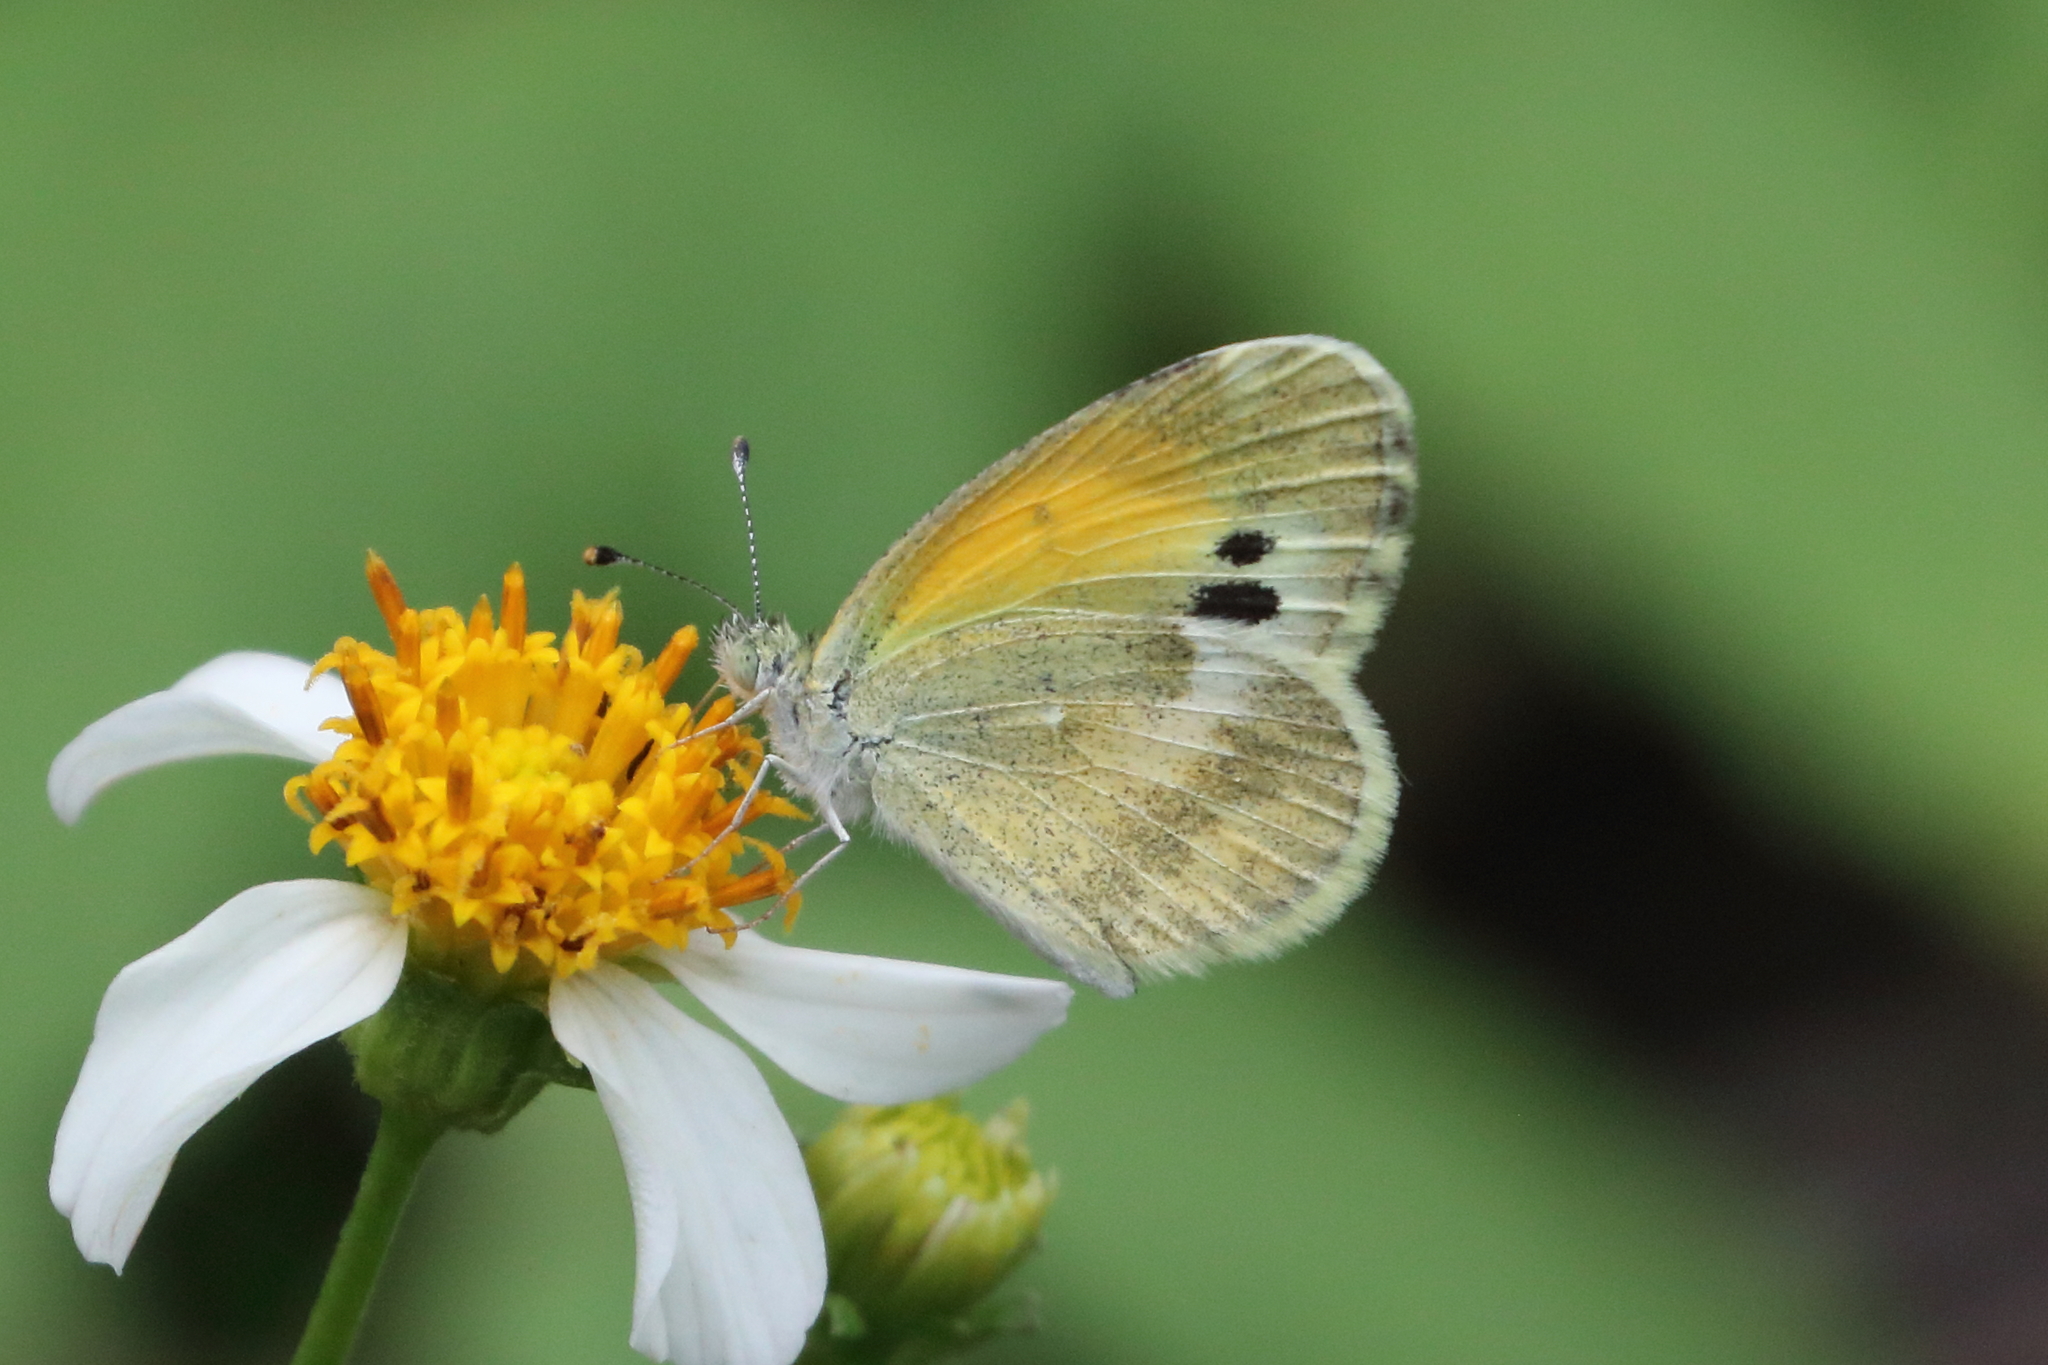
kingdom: Animalia
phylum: Arthropoda
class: Insecta
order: Lepidoptera
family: Pieridae
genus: Nathalis
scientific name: Nathalis iole
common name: Dainty sulphur
